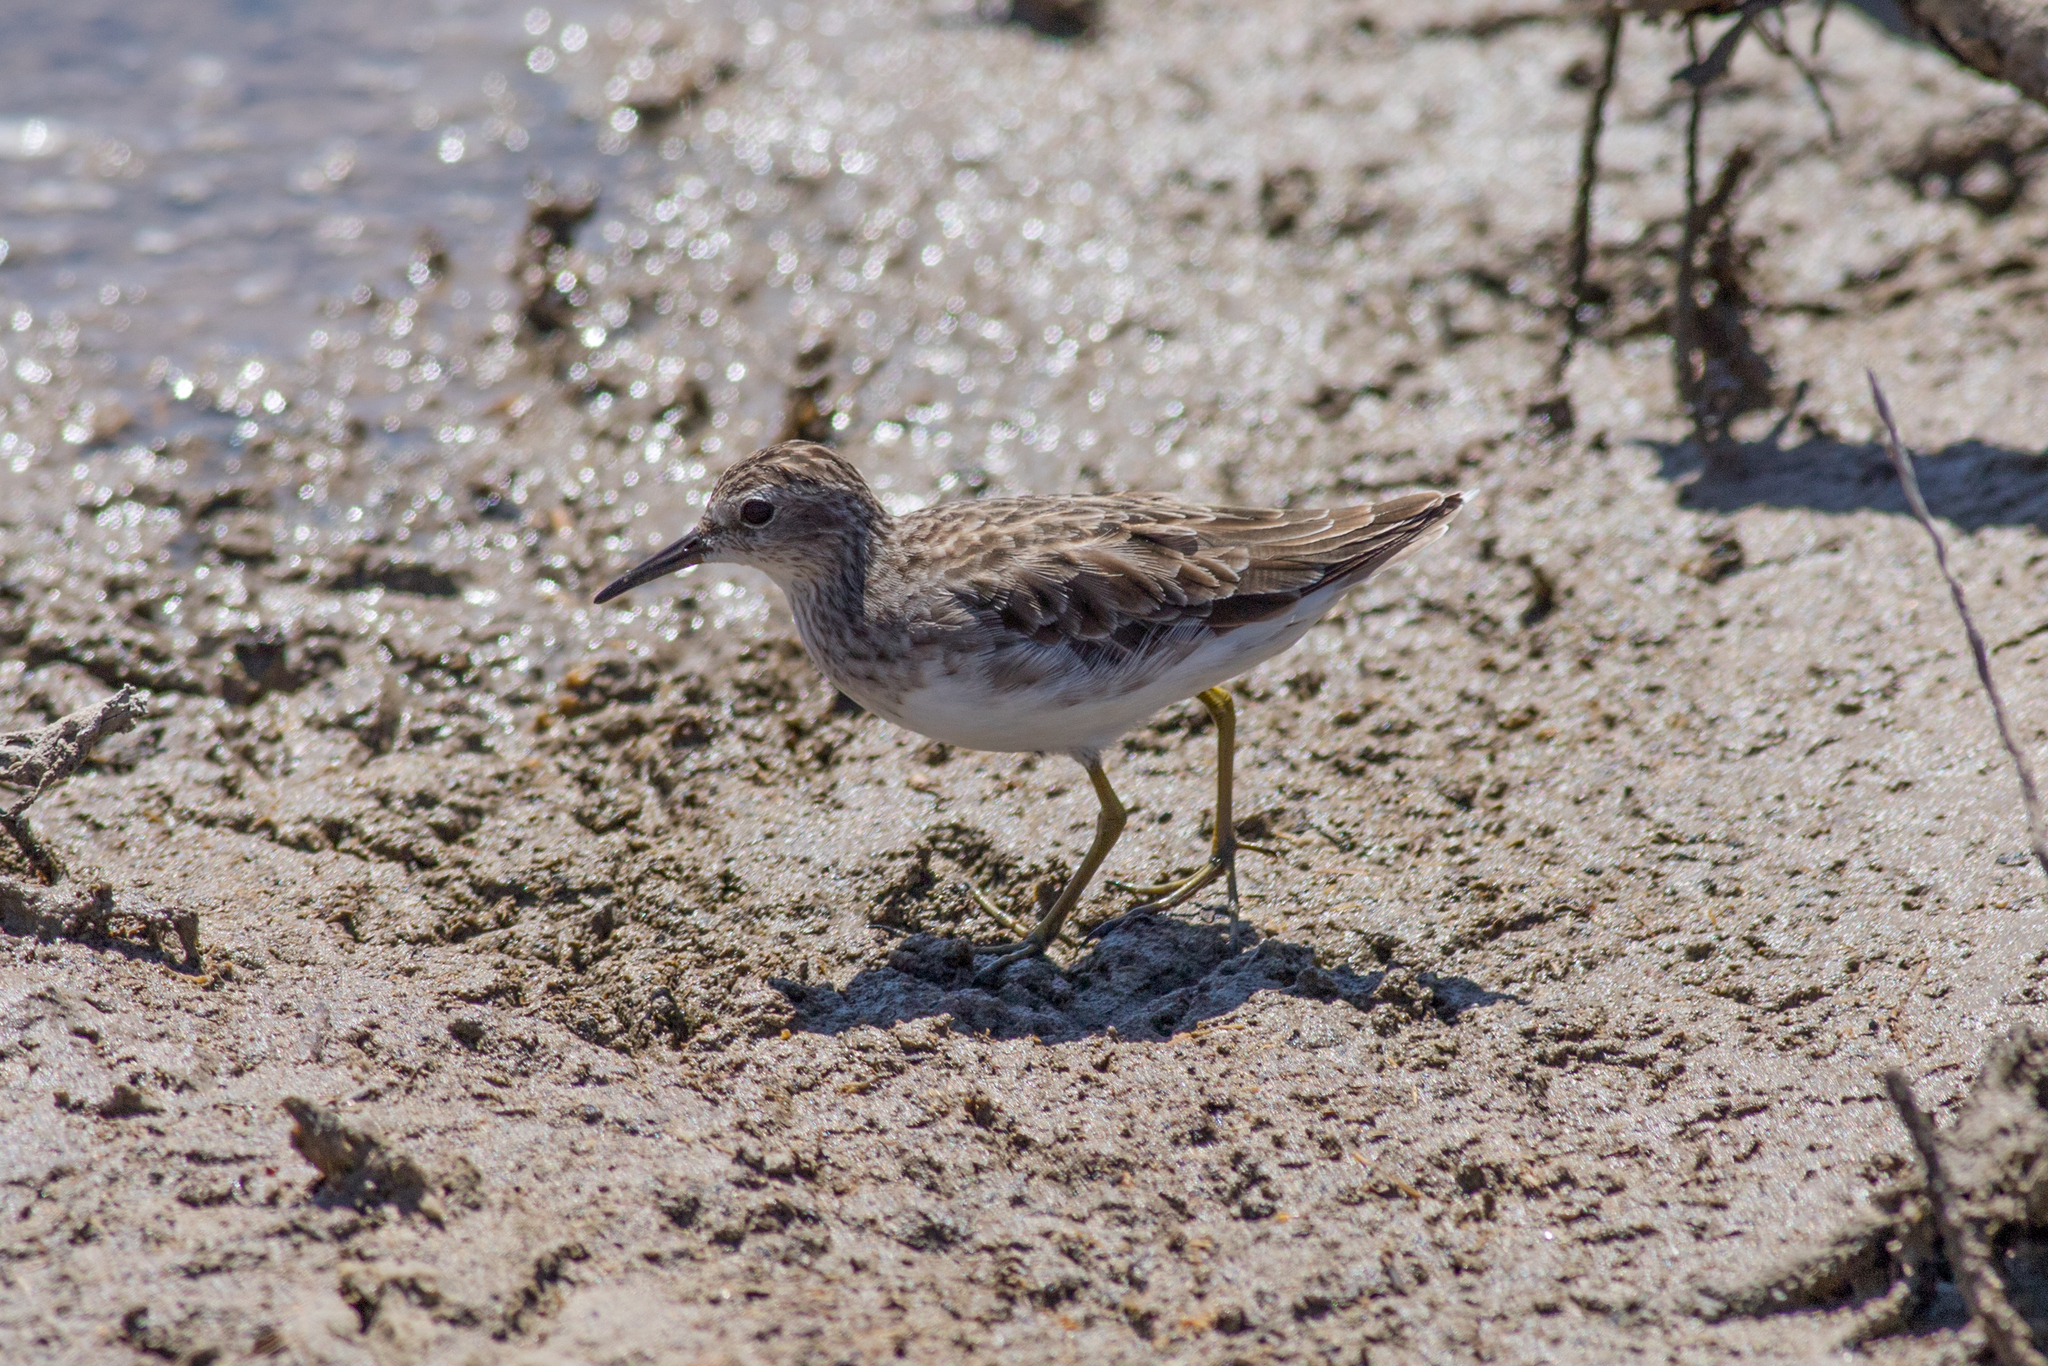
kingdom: Animalia
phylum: Chordata
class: Aves
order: Charadriiformes
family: Scolopacidae
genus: Calidris
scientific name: Calidris subminuta
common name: Long-toed stint
